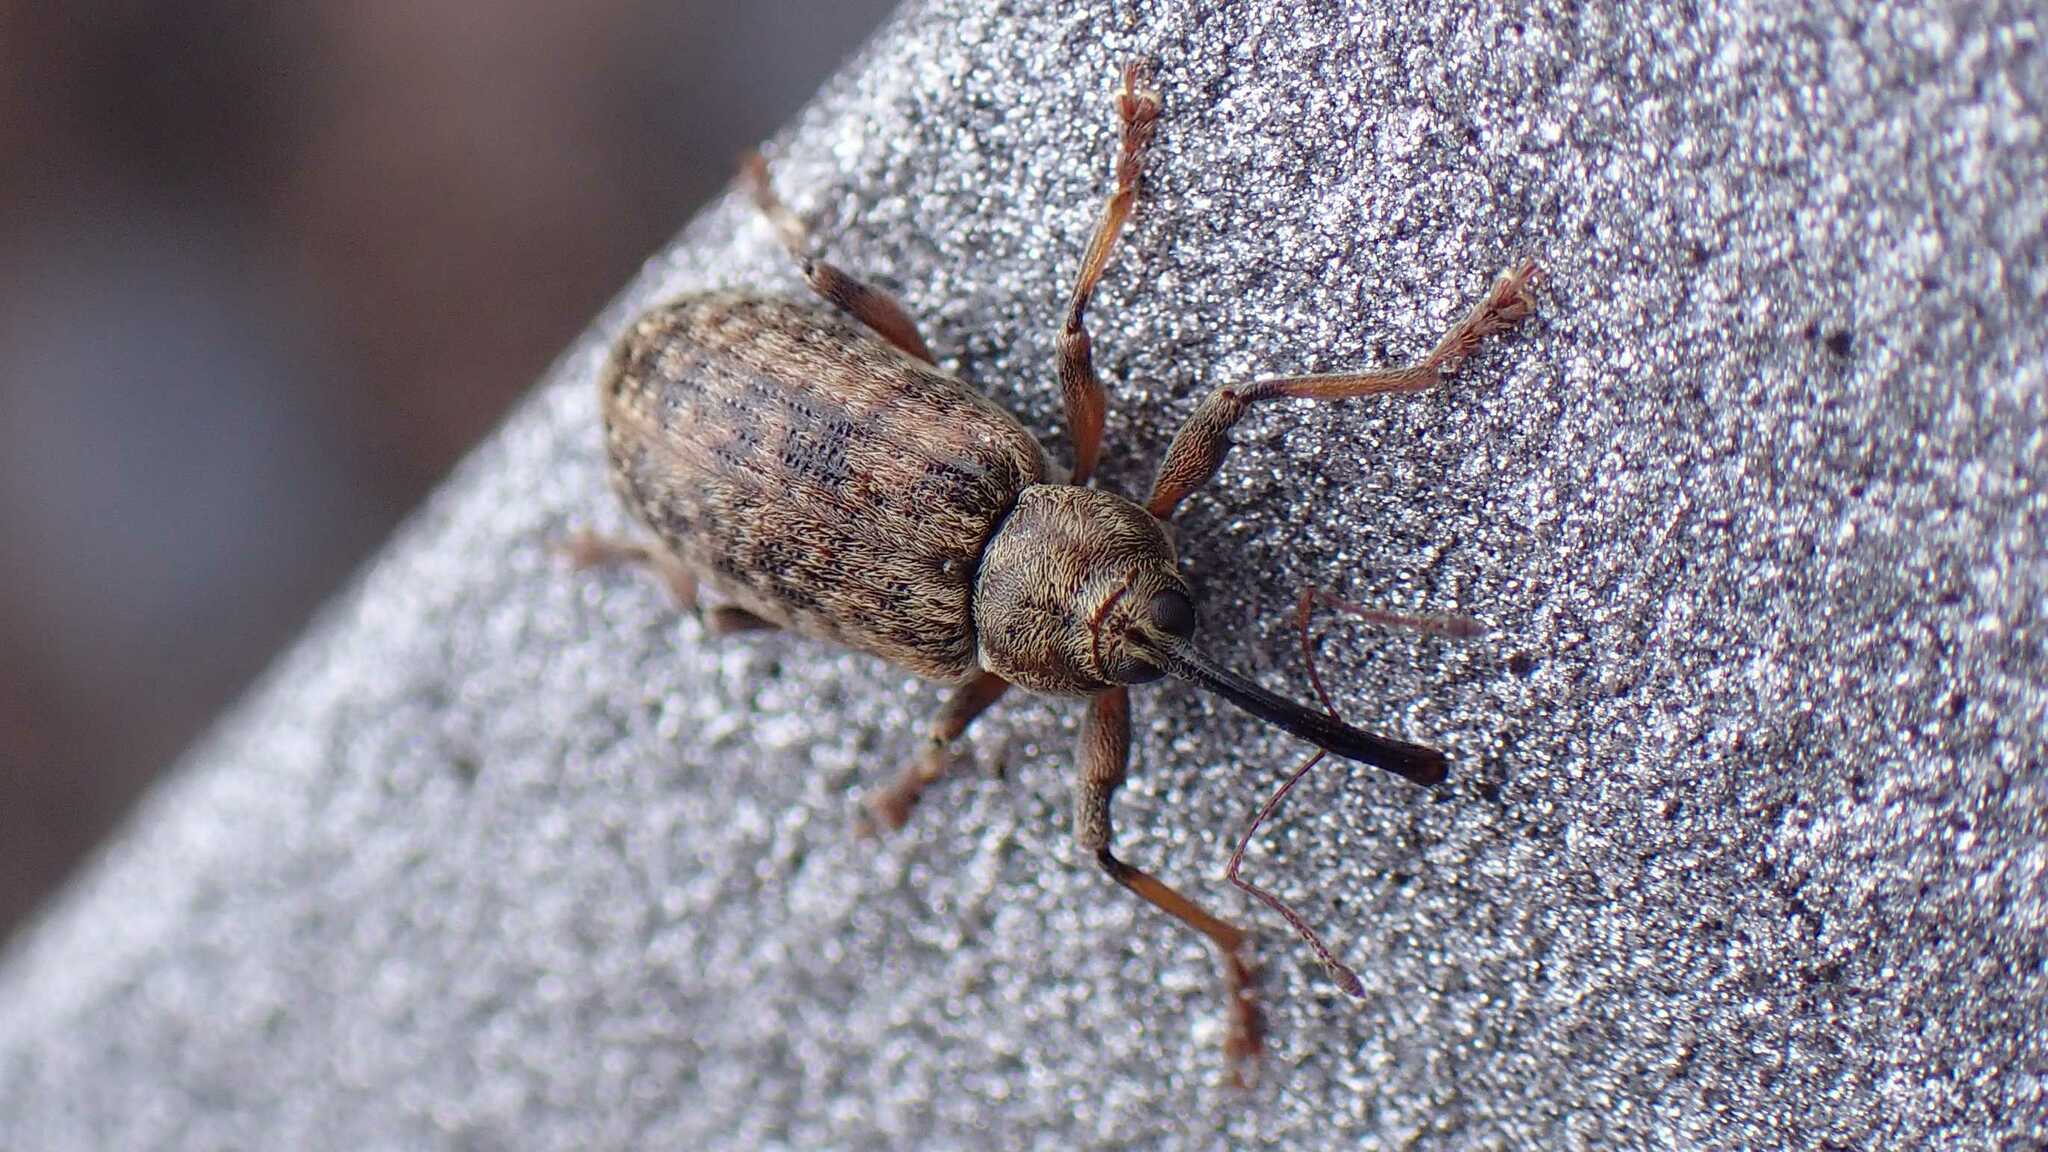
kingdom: Animalia
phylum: Arthropoda
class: Insecta
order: Coleoptera
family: Curculionidae
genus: Dorytomus
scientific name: Dorytomus longimanus
